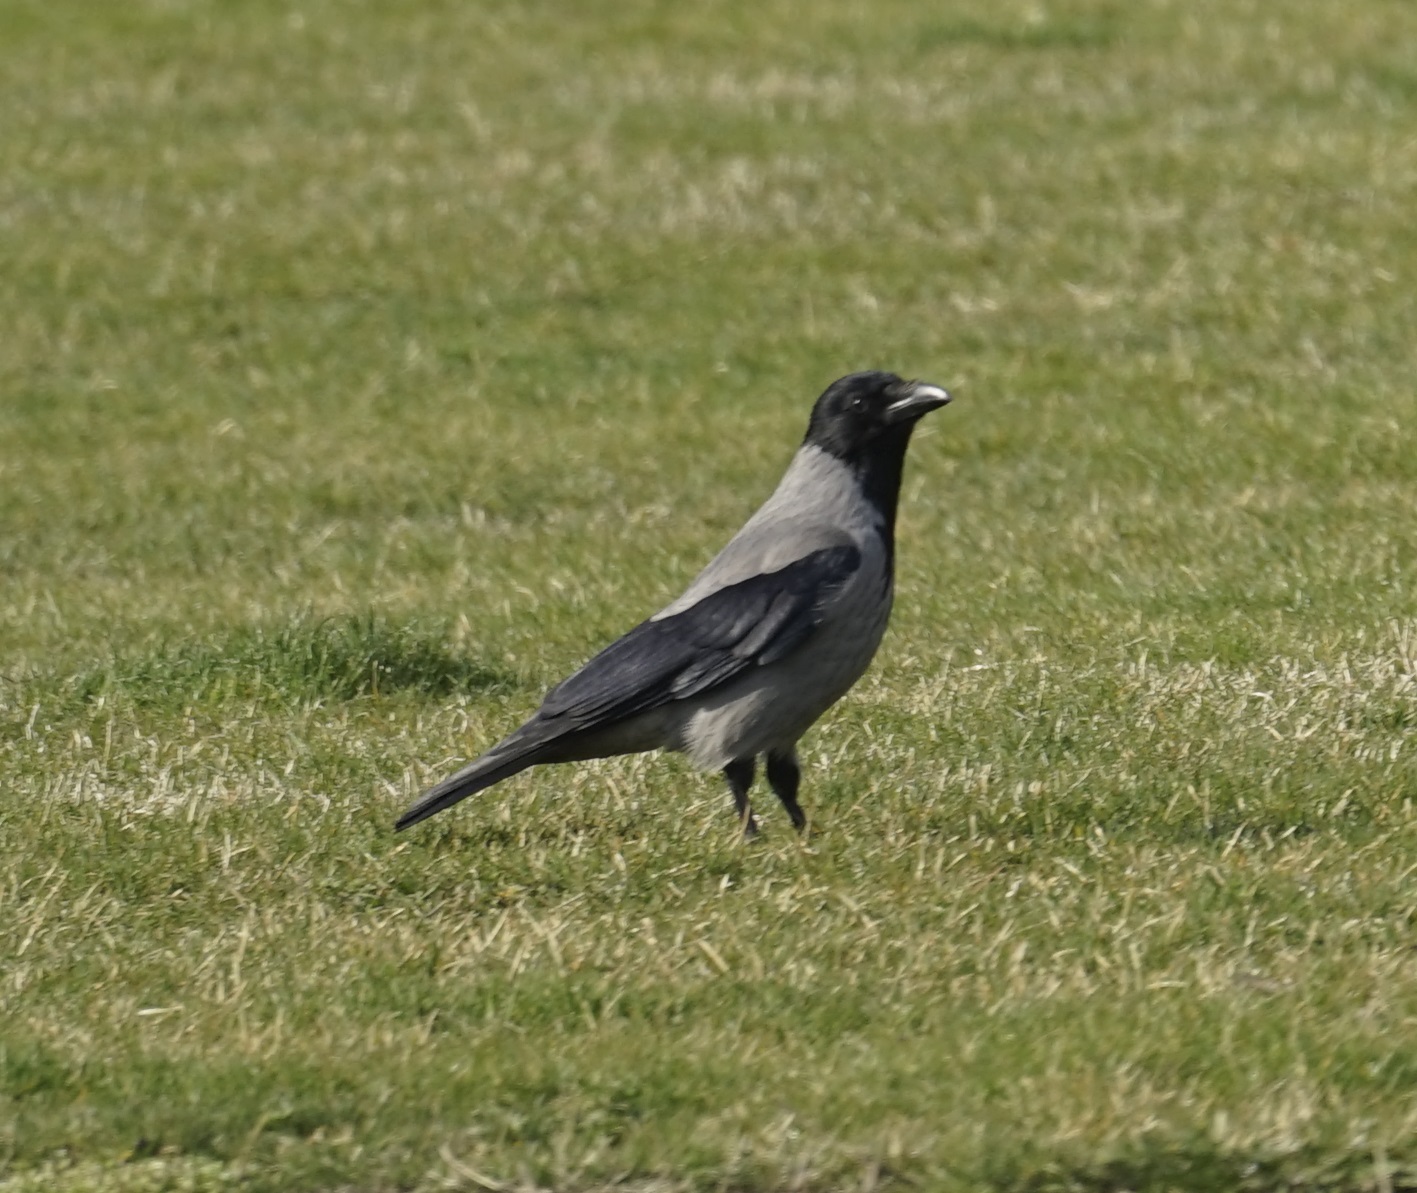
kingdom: Animalia
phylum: Chordata
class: Aves
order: Passeriformes
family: Corvidae
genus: Corvus
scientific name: Corvus cornix
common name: Hooded crow
